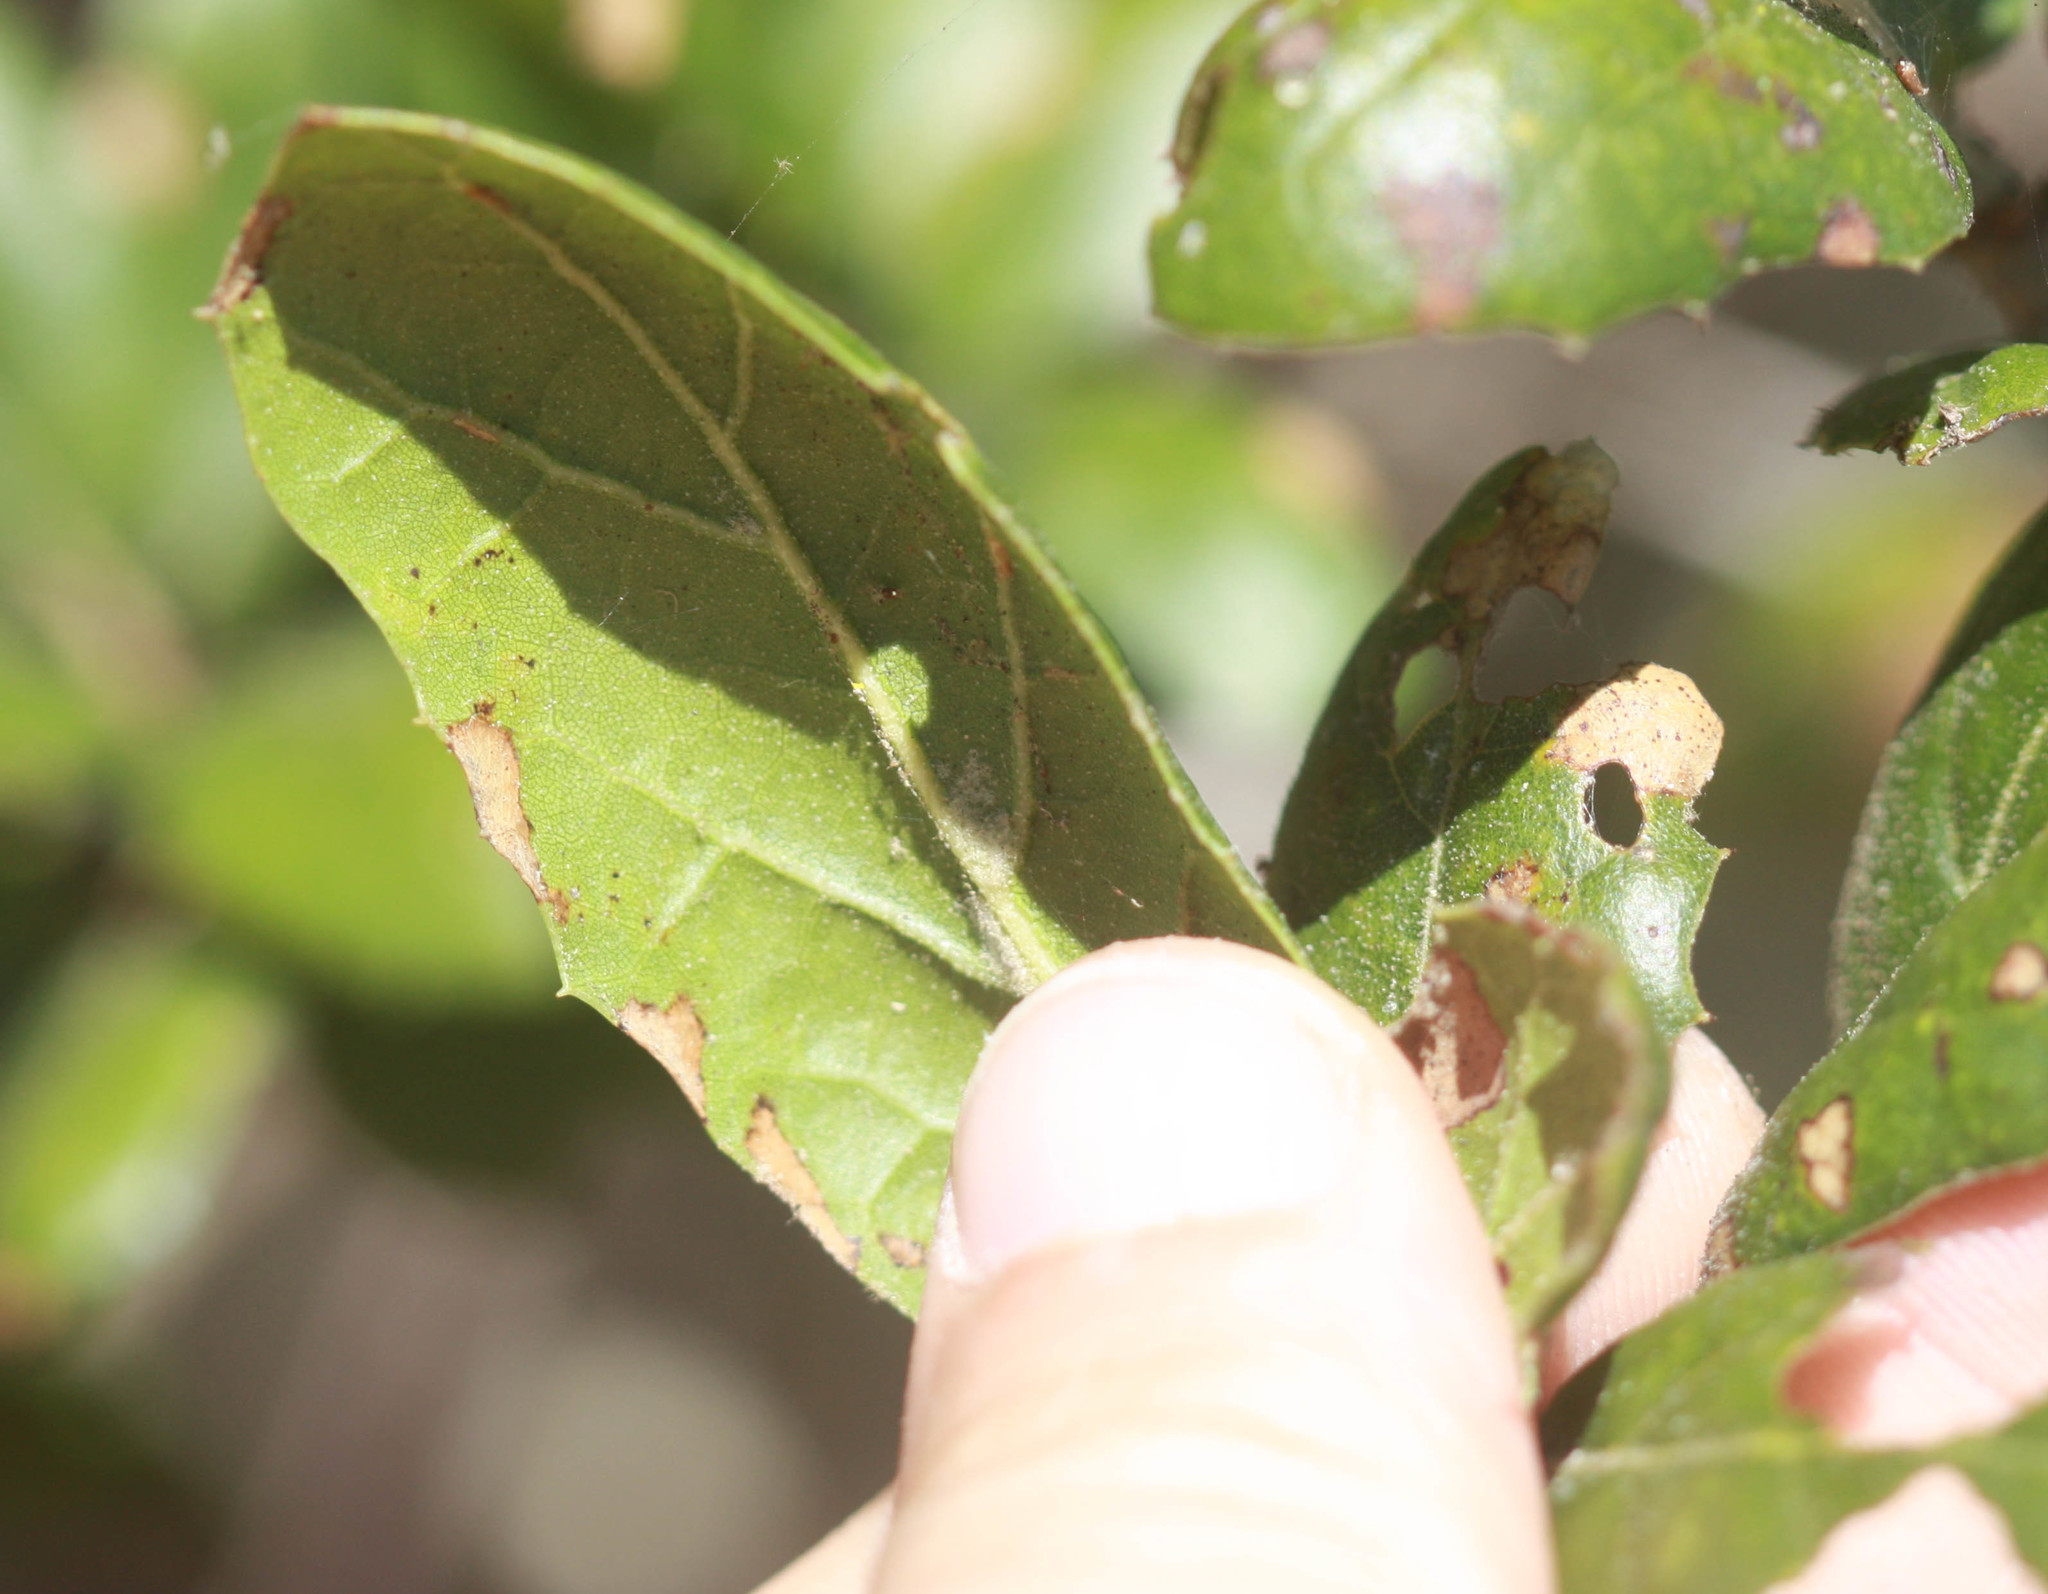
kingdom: Plantae
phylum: Tracheophyta
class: Magnoliopsida
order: Fagales
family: Fagaceae
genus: Quercus
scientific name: Quercus agrifolia
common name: California live oak
